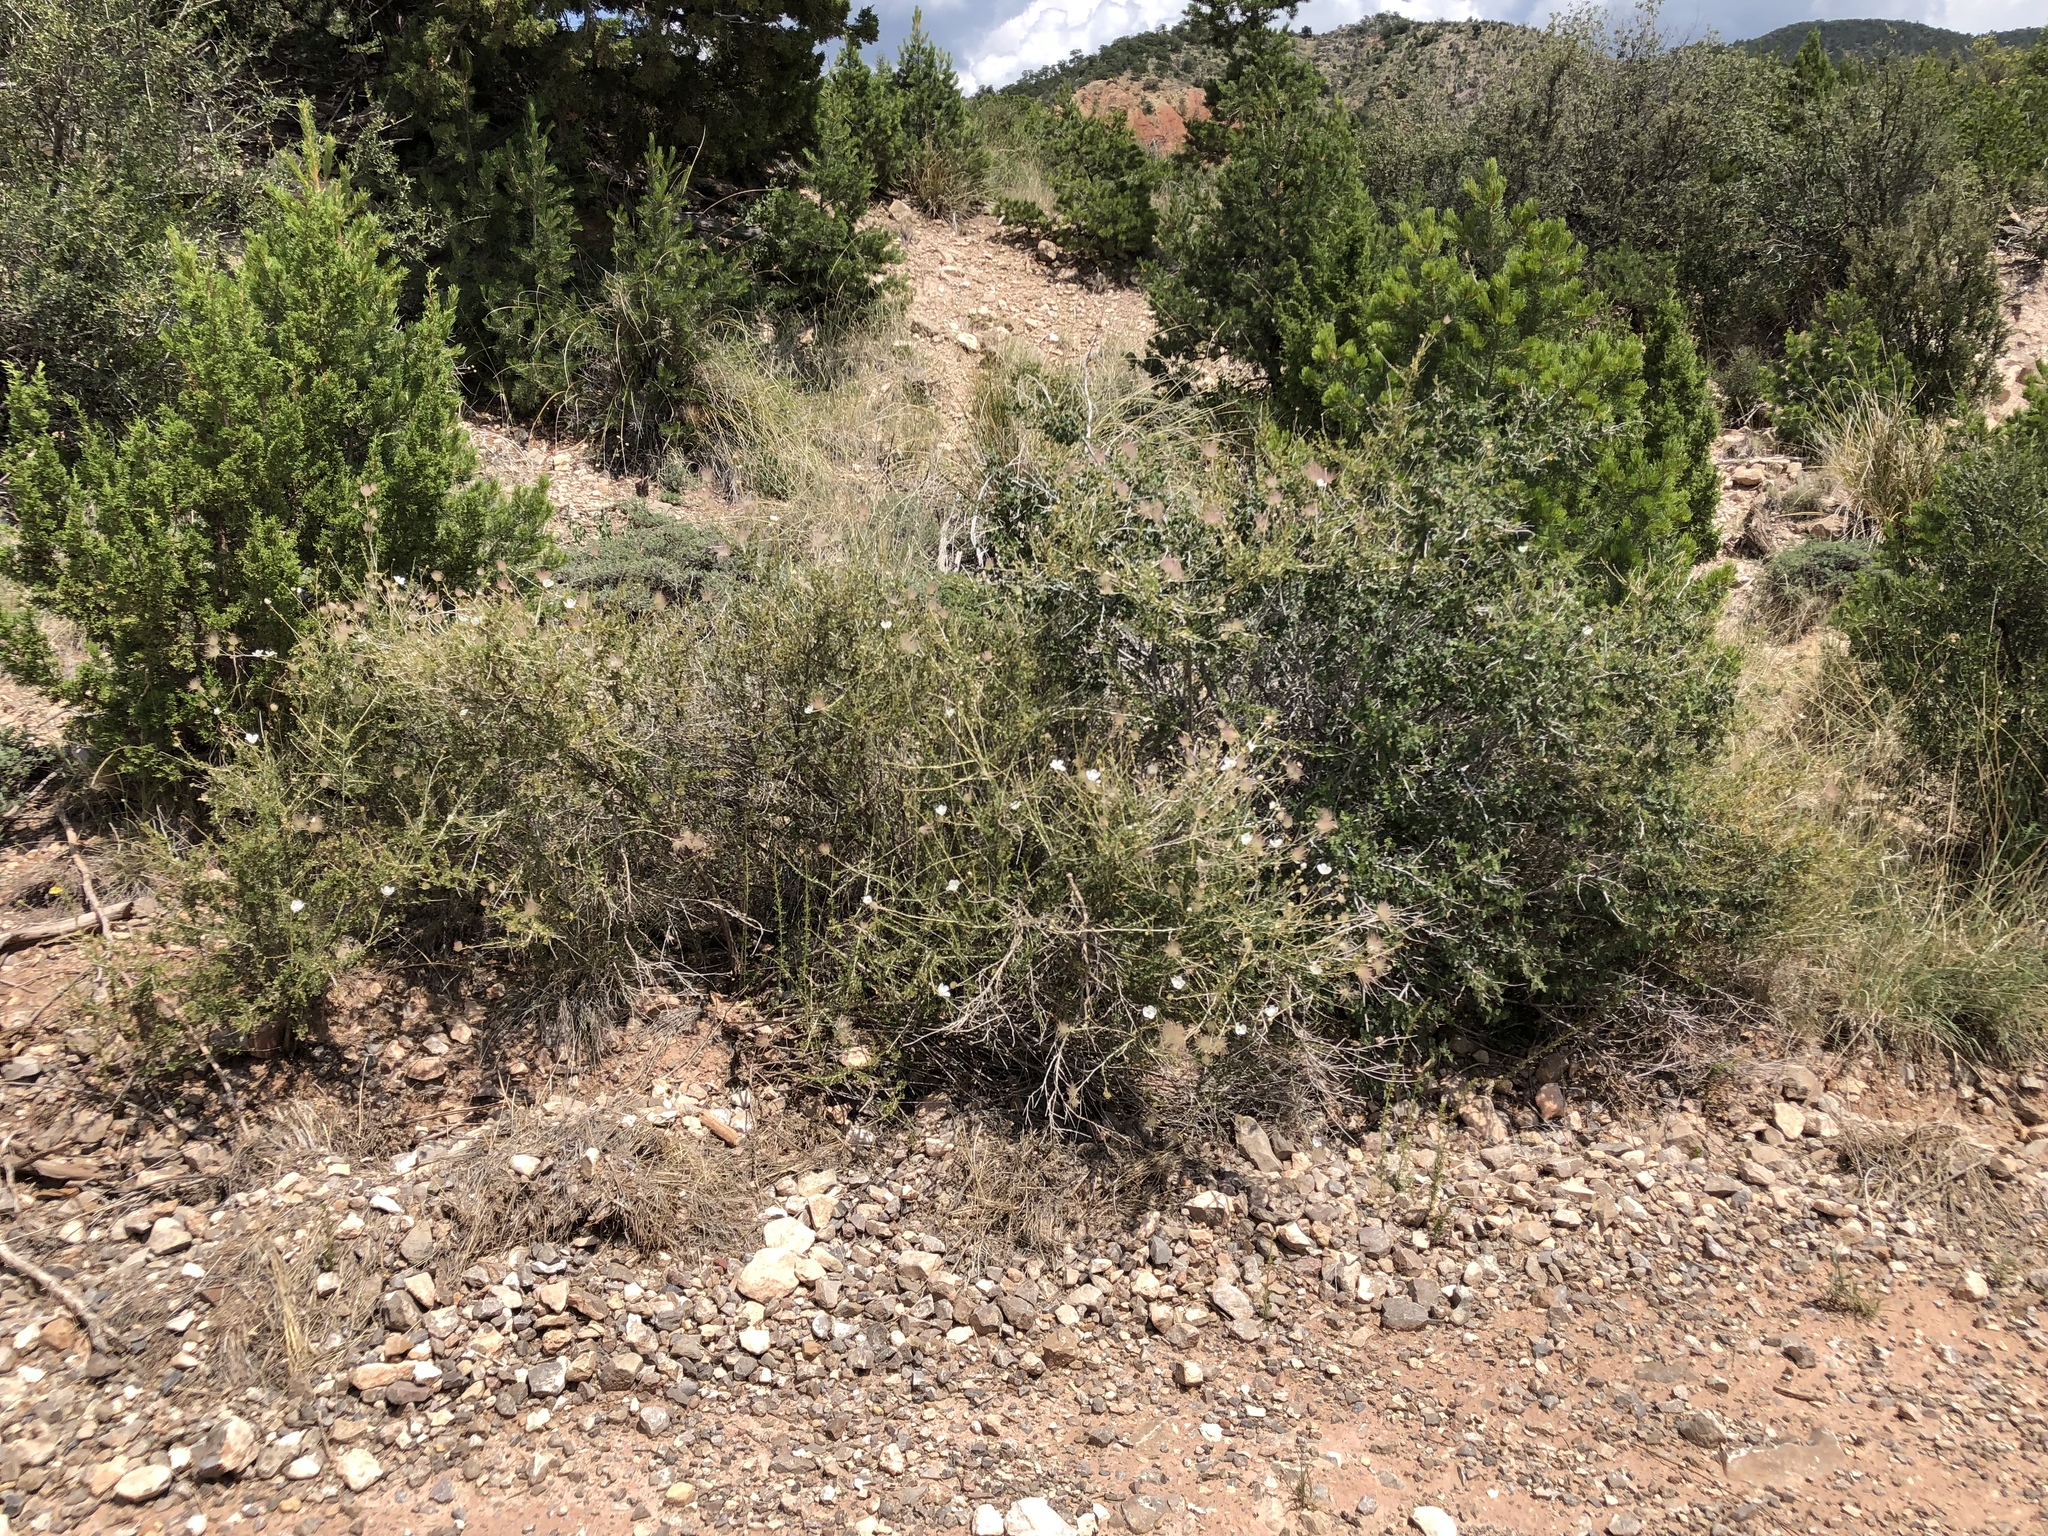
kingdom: Plantae
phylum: Tracheophyta
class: Magnoliopsida
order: Rosales
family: Rosaceae
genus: Fallugia
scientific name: Fallugia paradoxa
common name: Apache-plume
